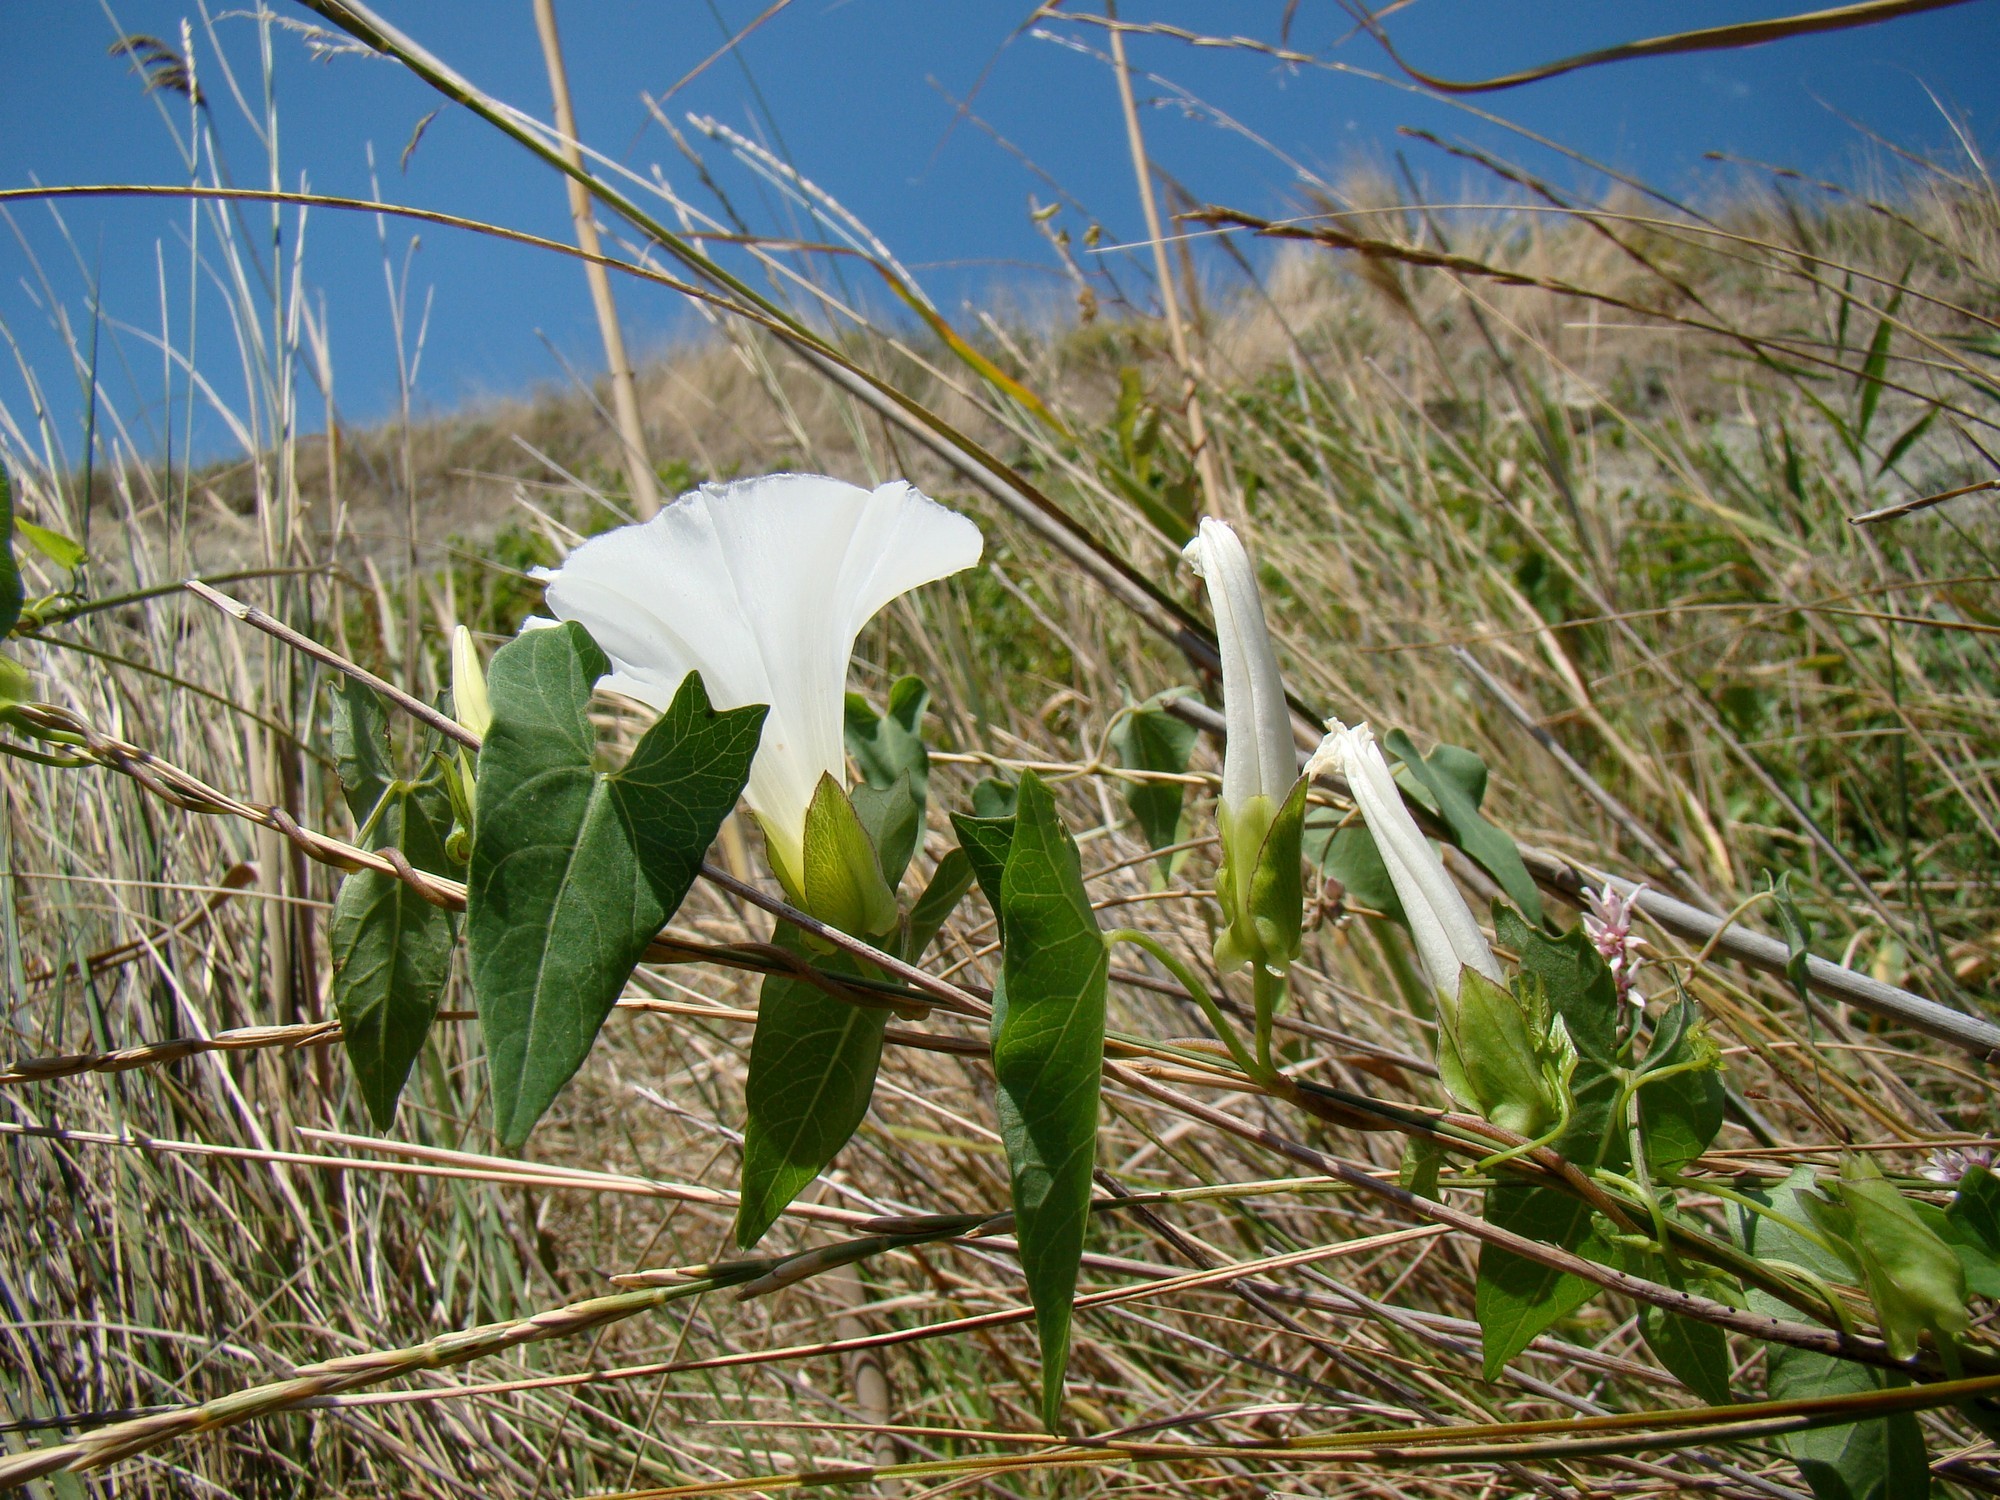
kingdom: Plantae
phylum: Tracheophyta
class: Magnoliopsida
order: Solanales
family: Convolvulaceae
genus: Calystegia
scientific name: Calystegia sepium
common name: Hedge bindweed
